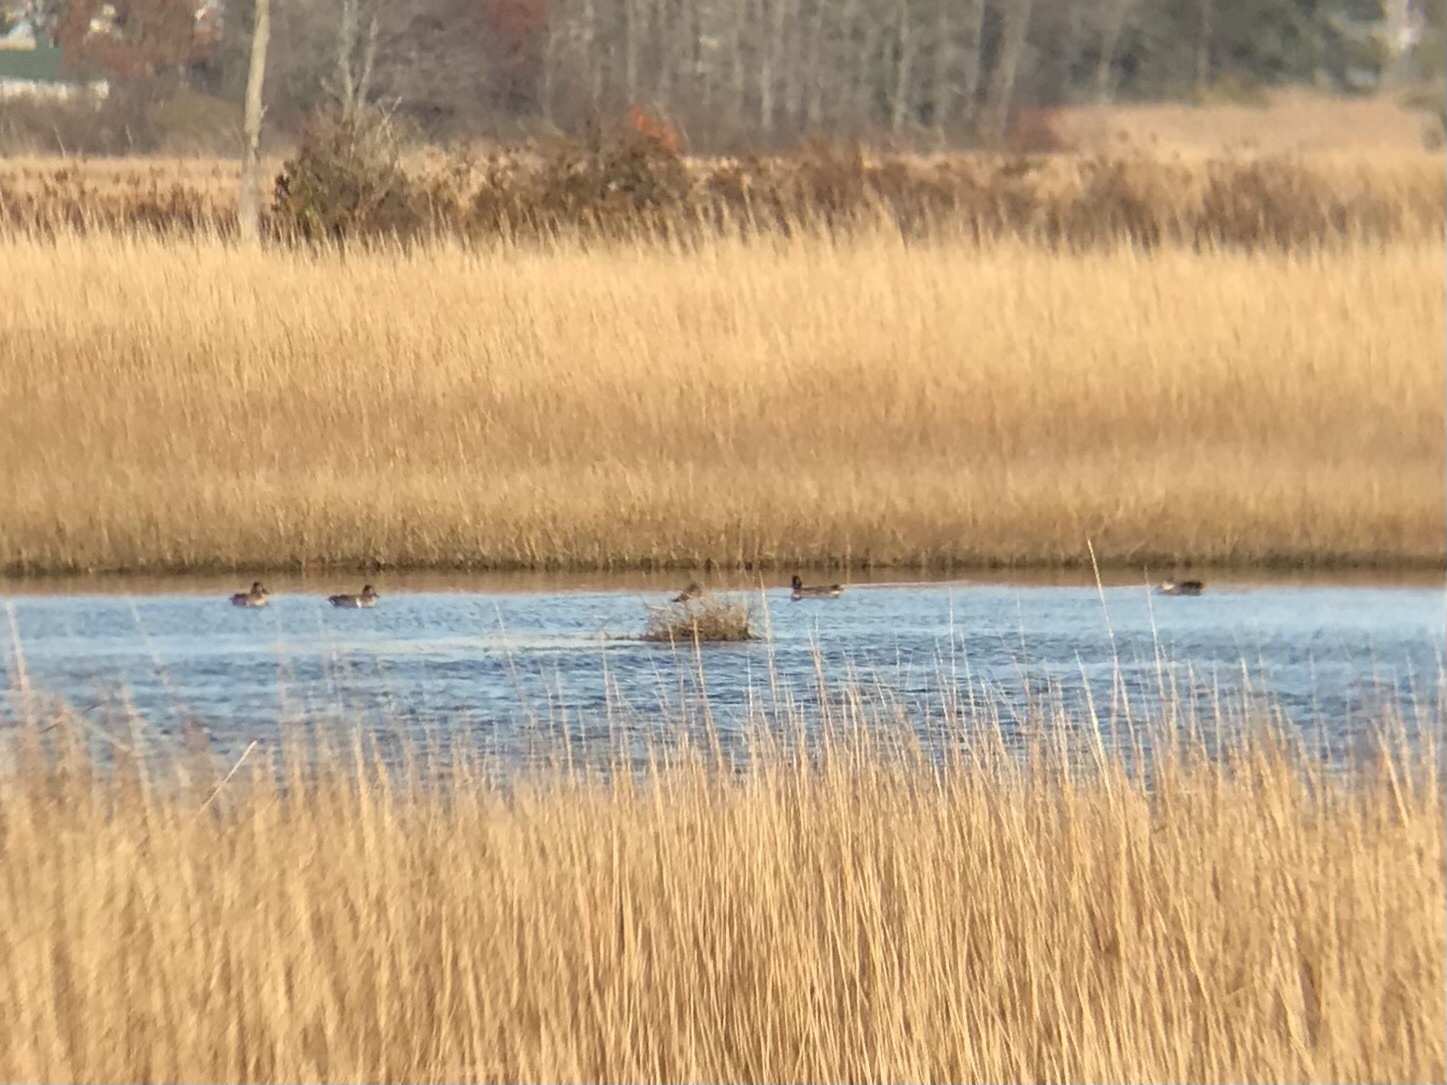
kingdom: Animalia
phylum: Chordata
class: Aves
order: Anseriformes
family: Anatidae
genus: Anas
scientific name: Anas crecca
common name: Eurasian teal
